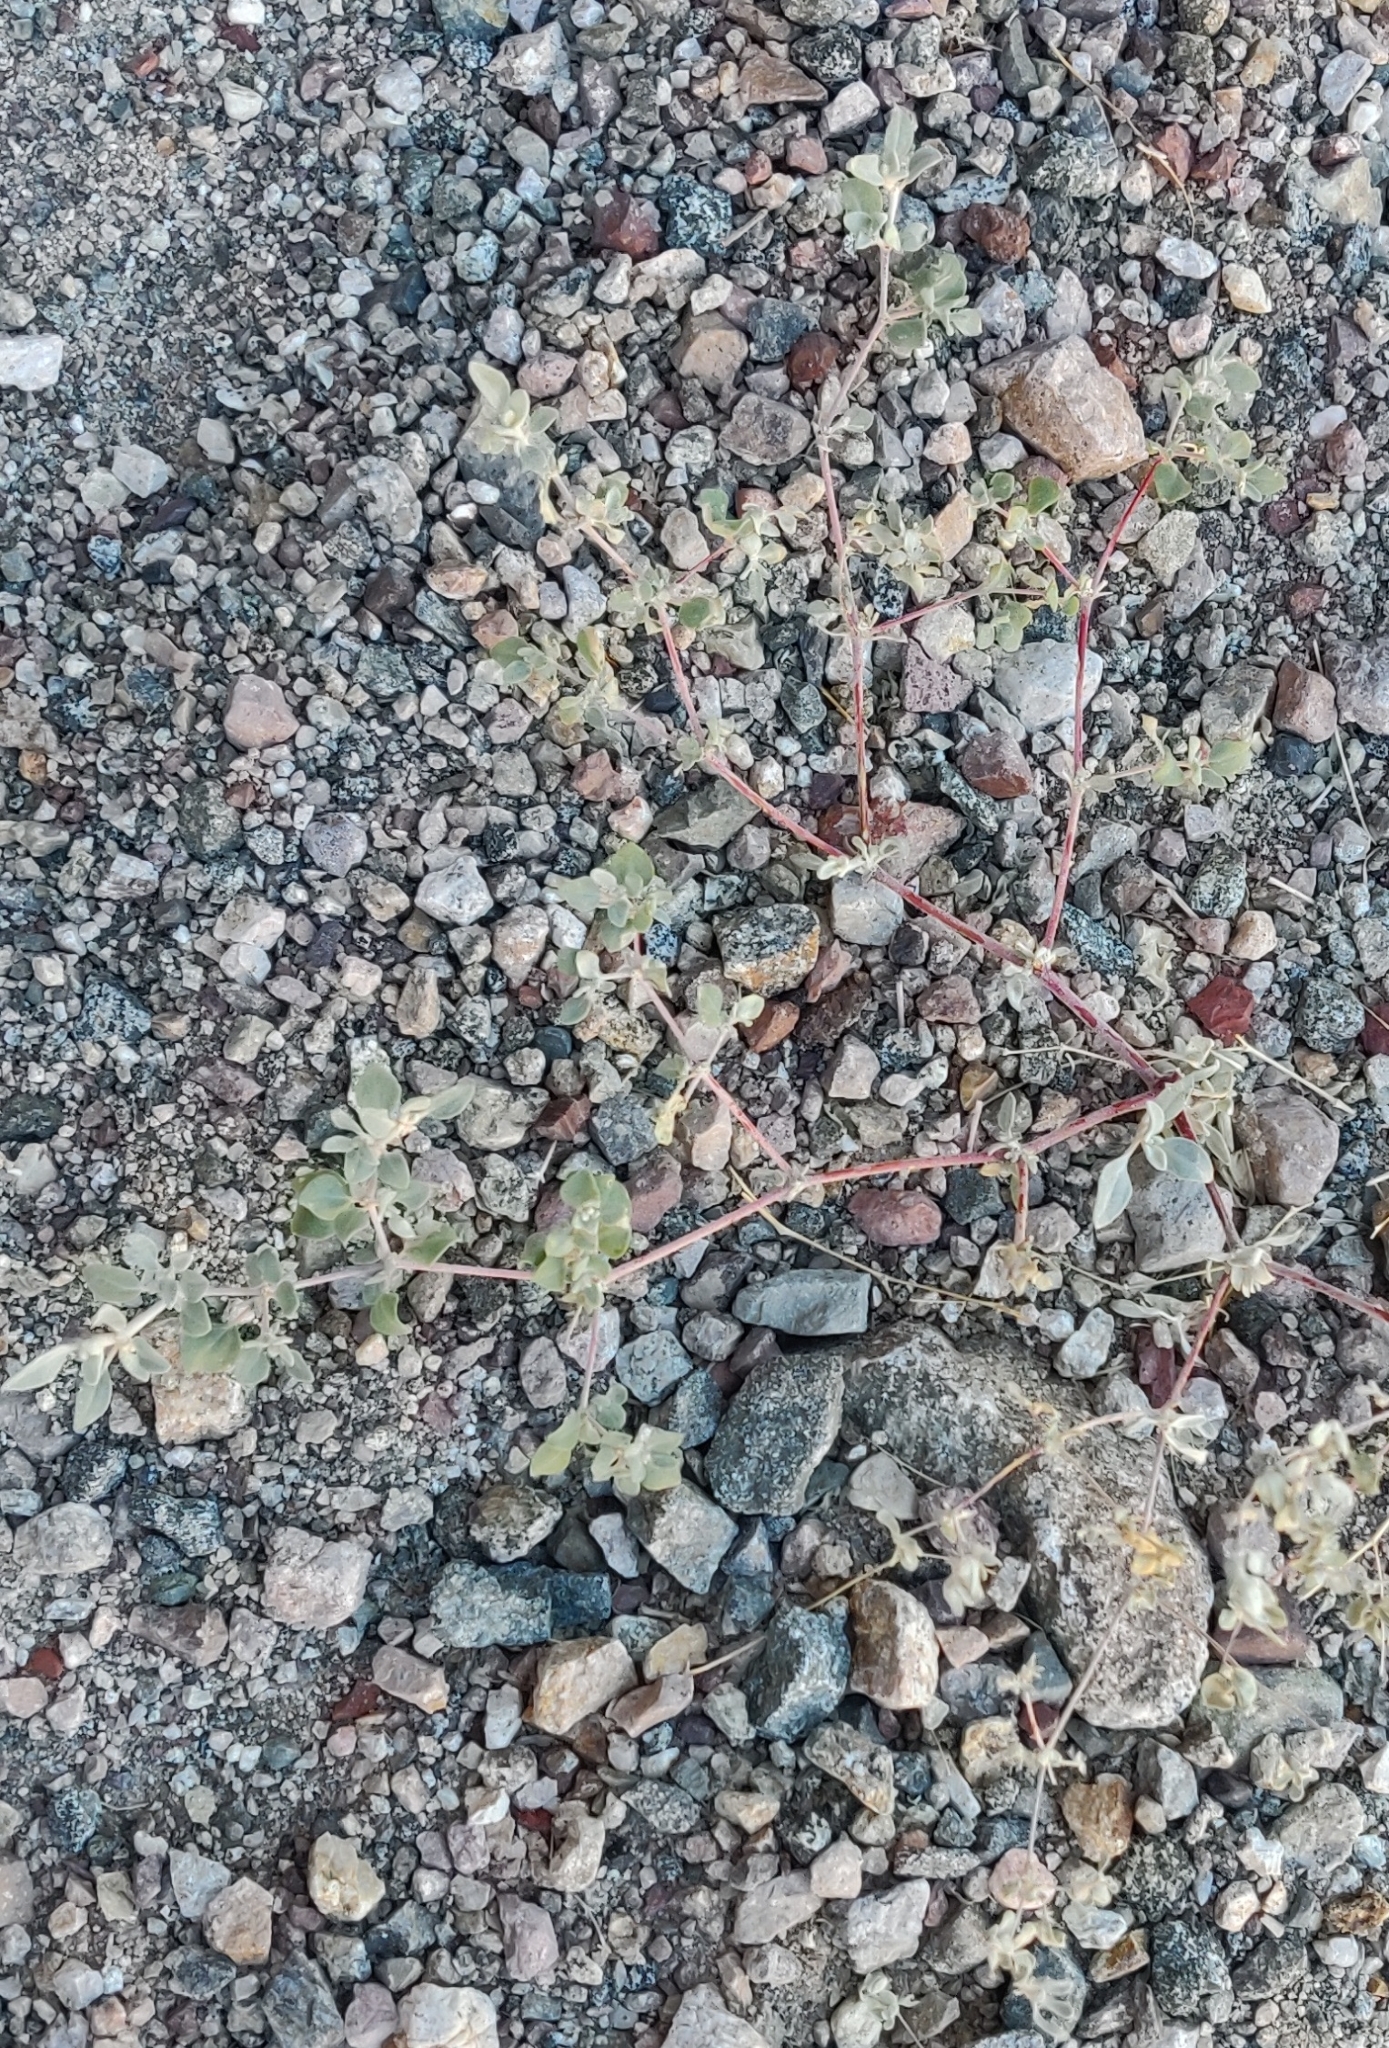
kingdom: Plantae
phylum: Tracheophyta
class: Magnoliopsida
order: Caryophyllales
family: Amaranthaceae
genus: Tidestromia
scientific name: Tidestromia suffruticosa
